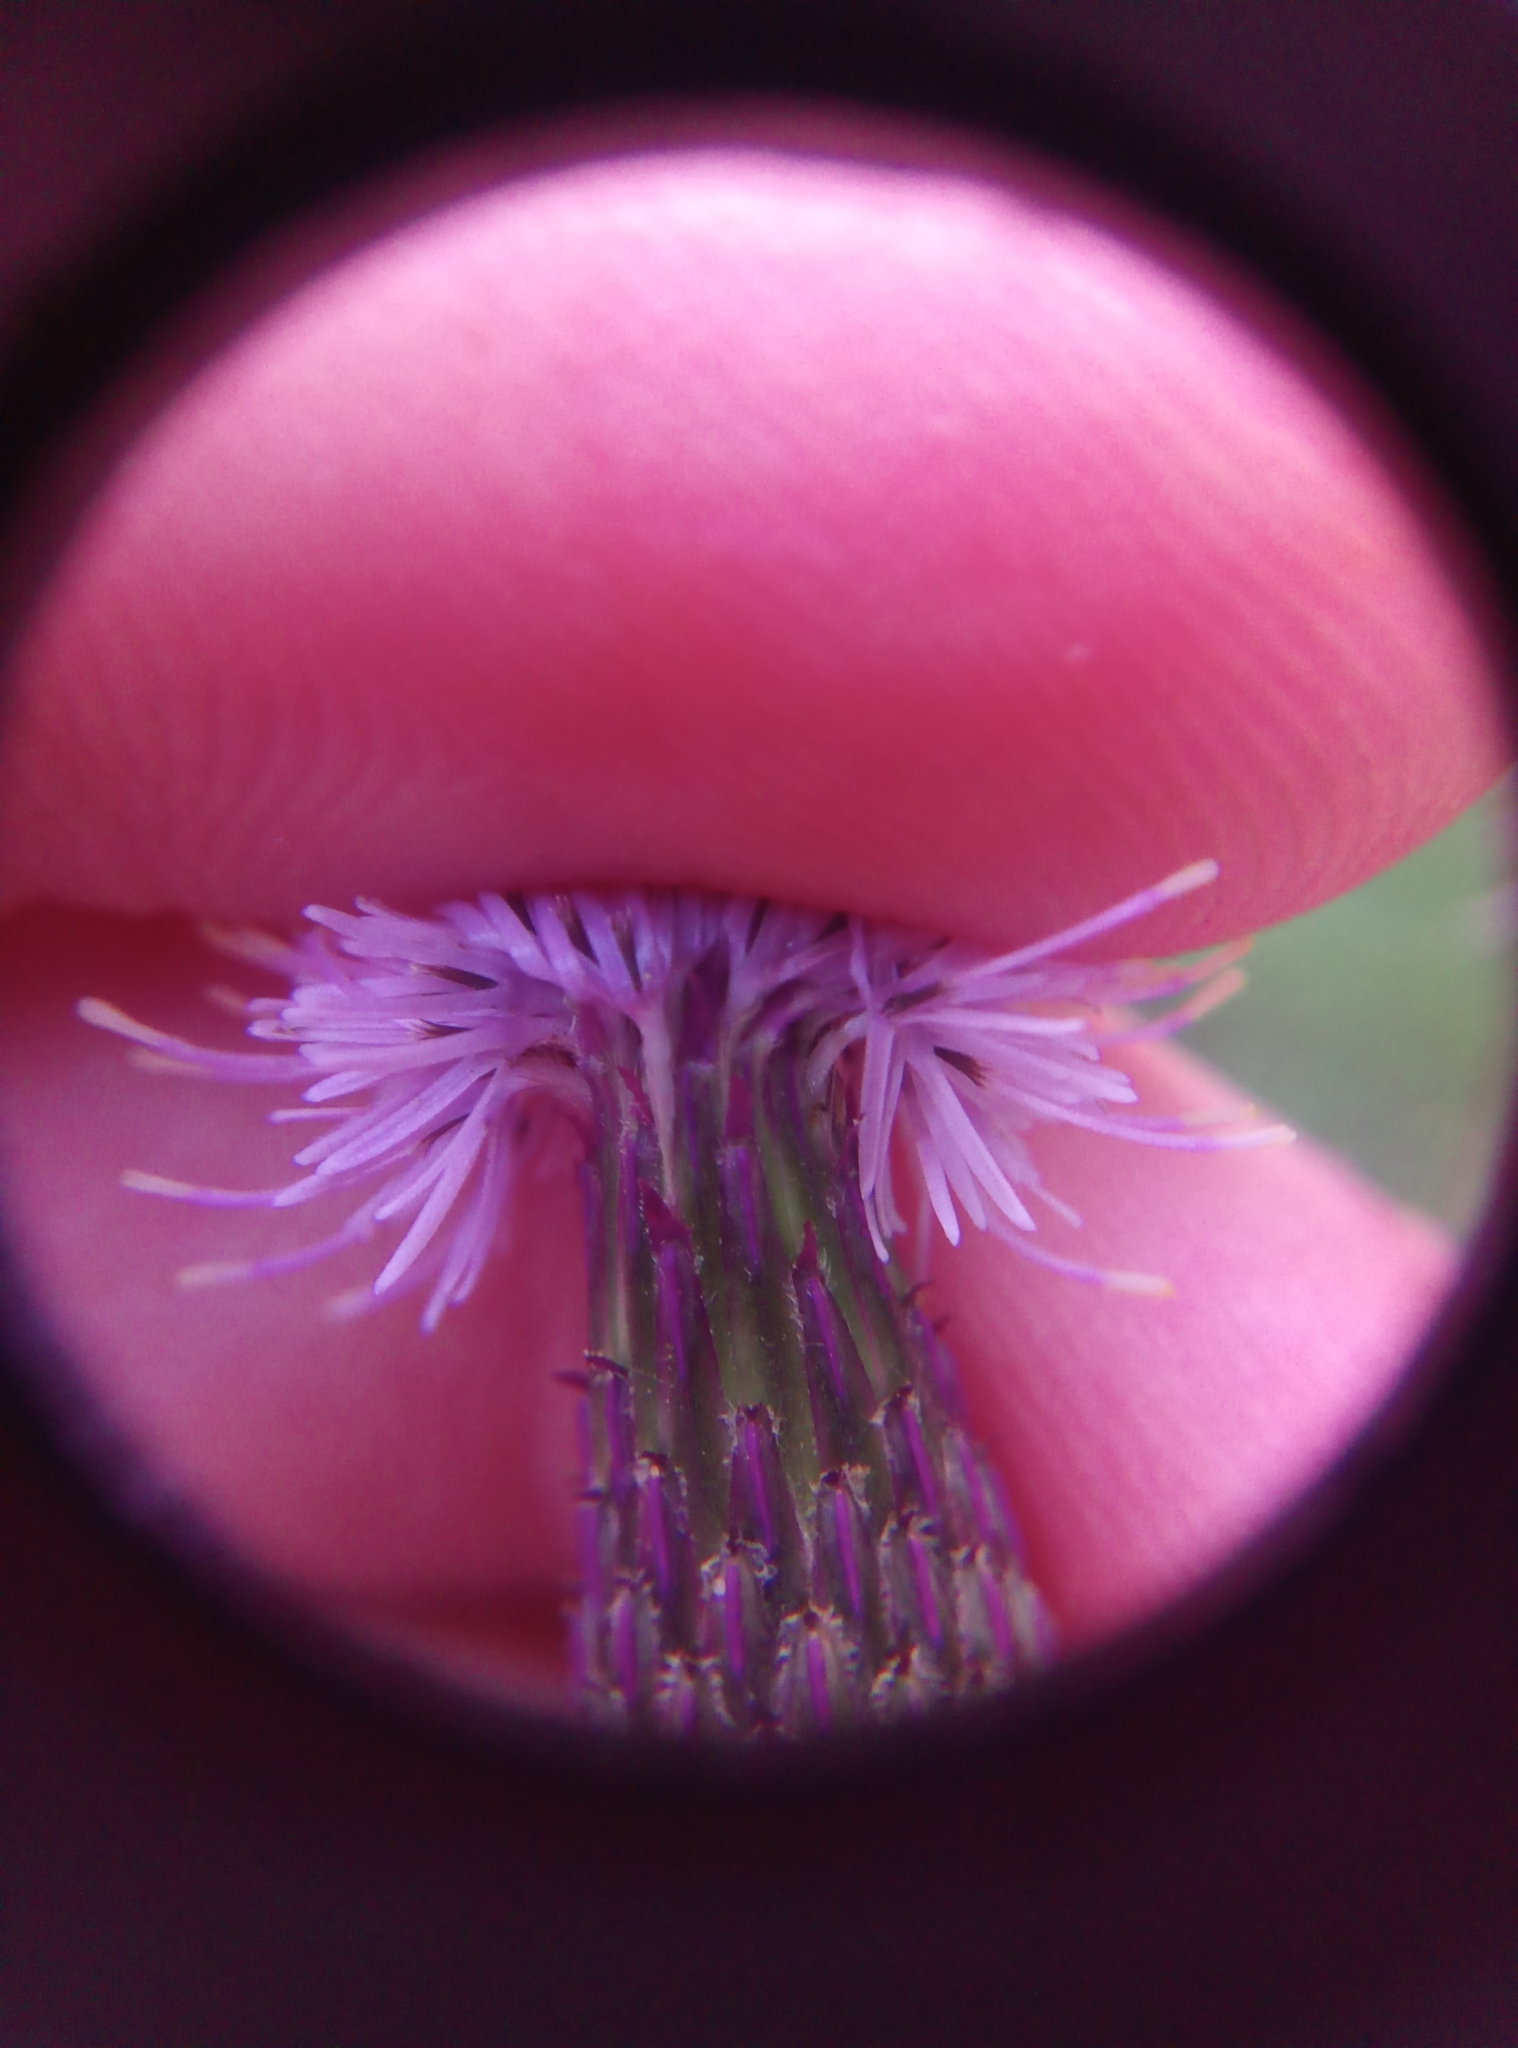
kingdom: Plantae
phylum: Tracheophyta
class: Magnoliopsida
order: Asterales
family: Asteraceae
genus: Cirsium
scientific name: Cirsium arvense
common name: Creeping thistle
